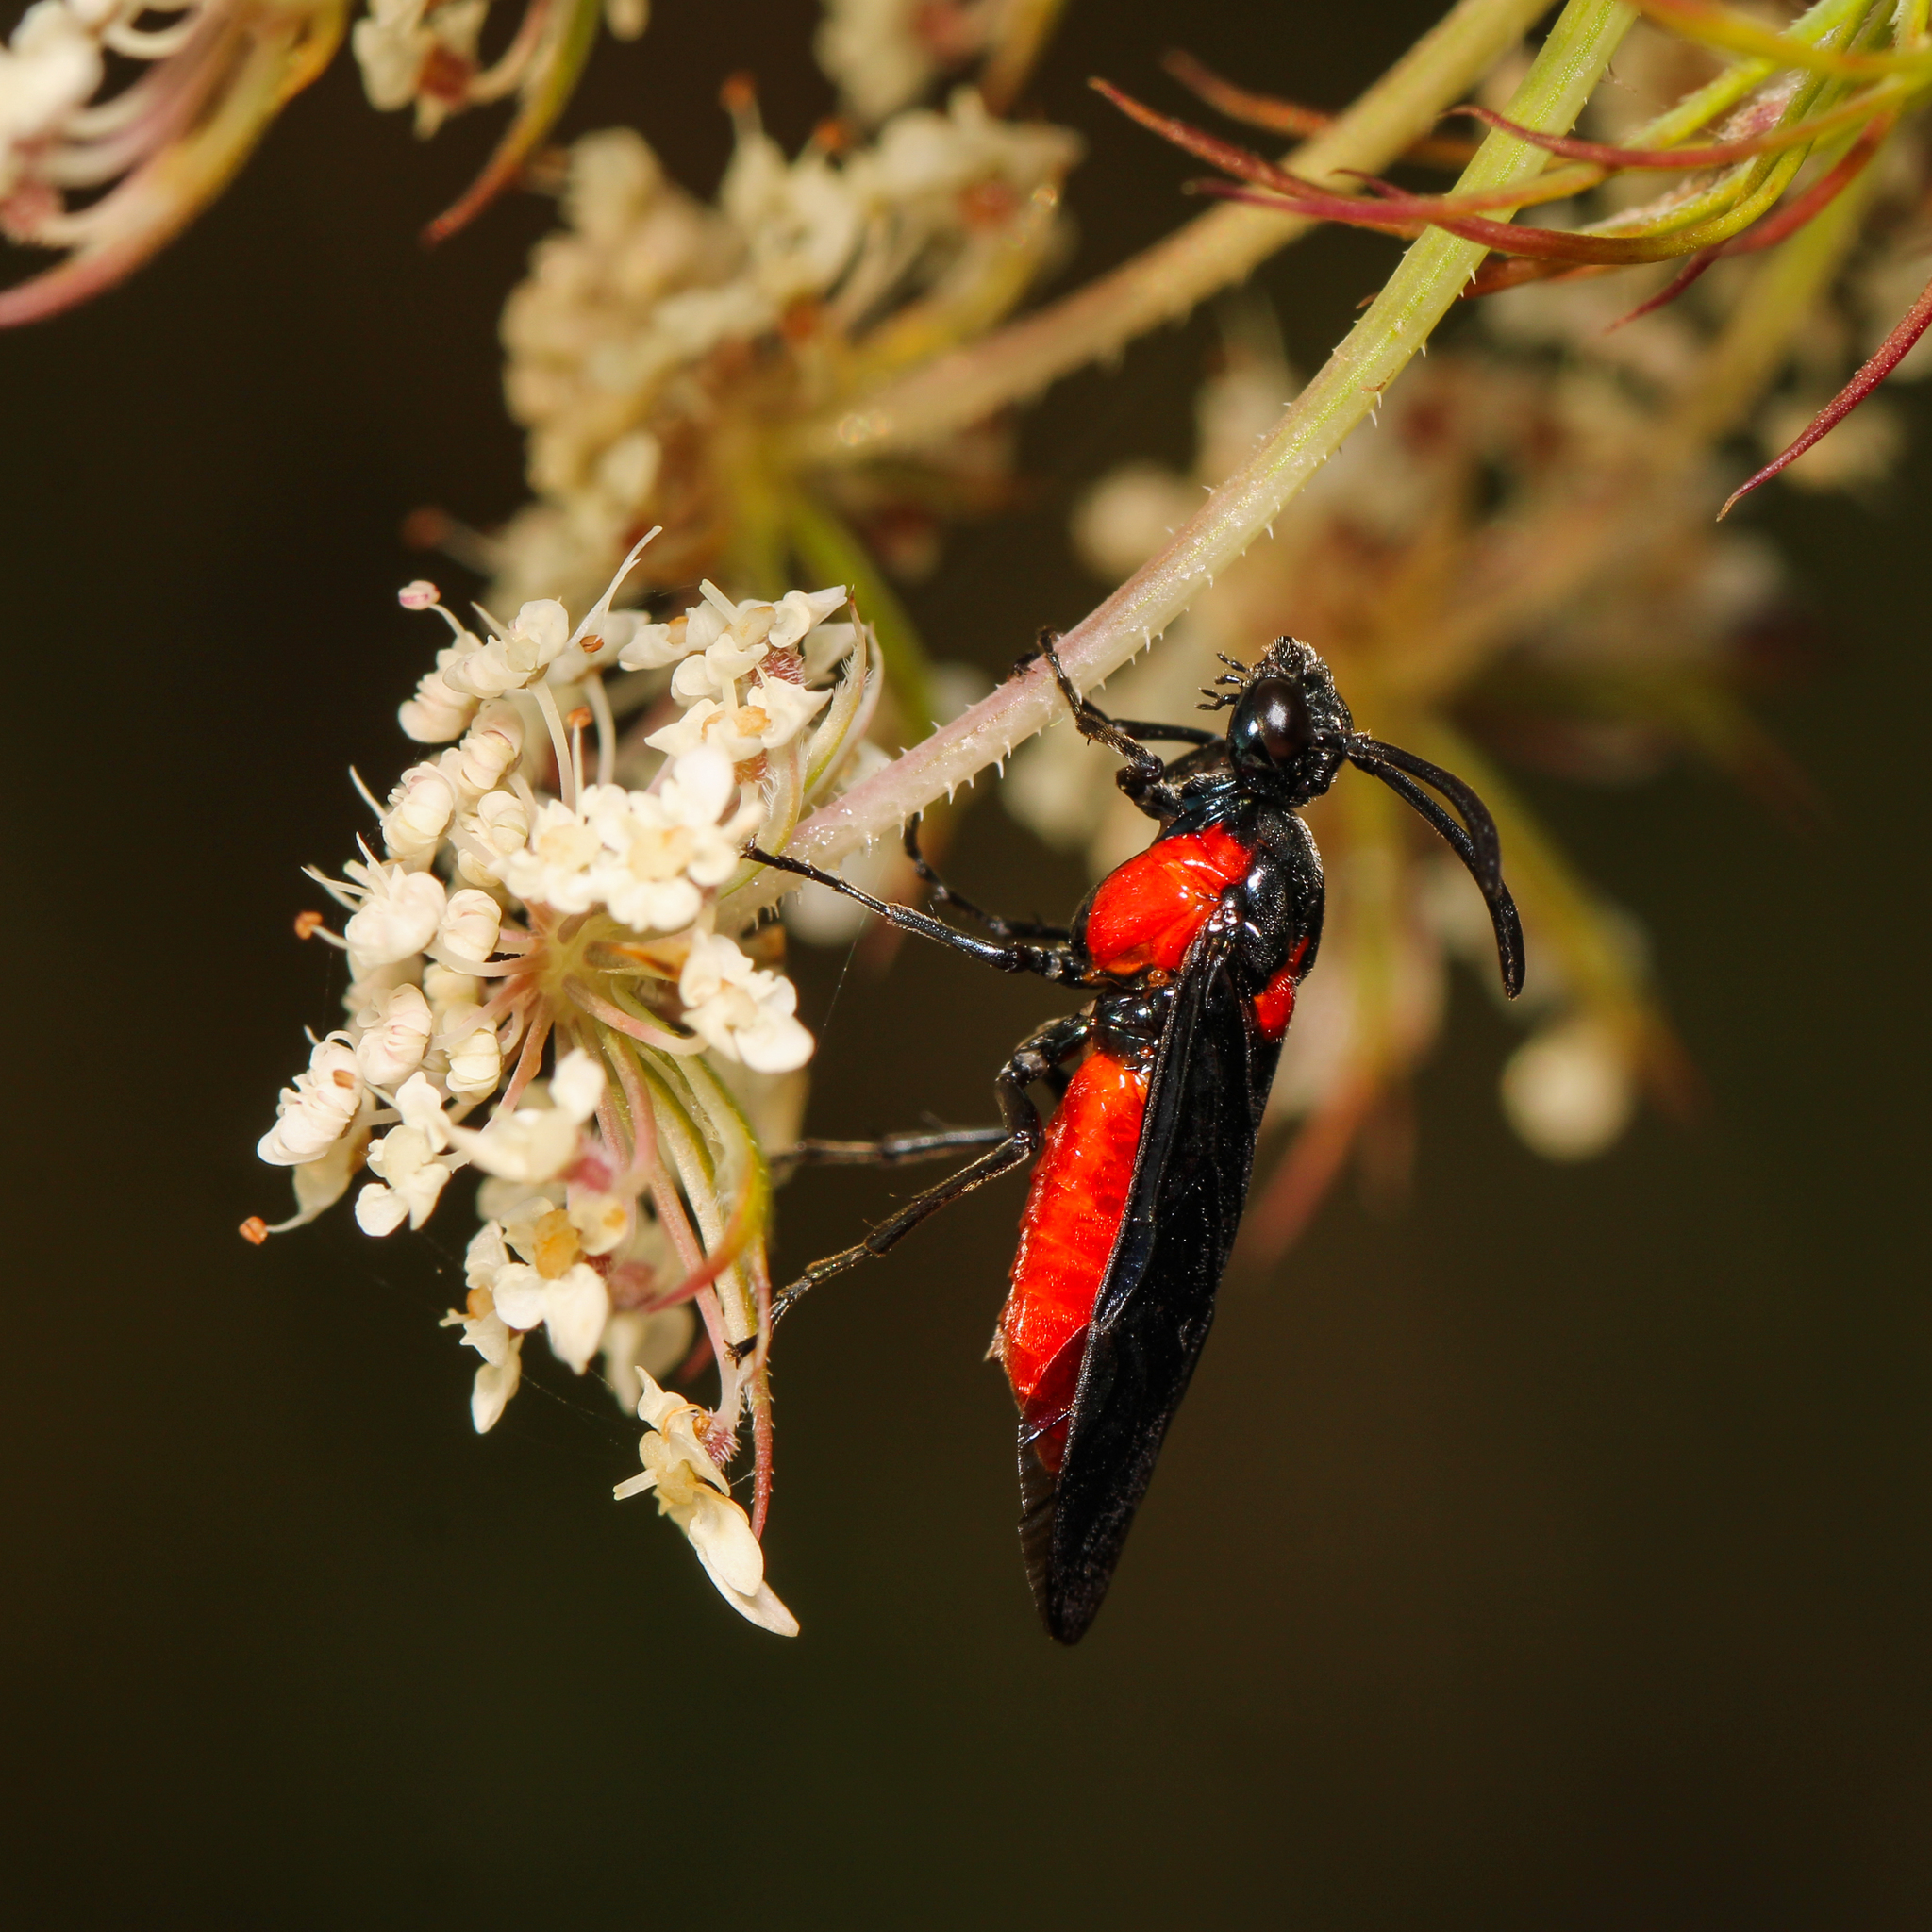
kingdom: Animalia
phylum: Arthropoda
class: Insecta
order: Hymenoptera
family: Argidae
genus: Arge
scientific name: Arge humeralis
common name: Poison ivy sawfly
